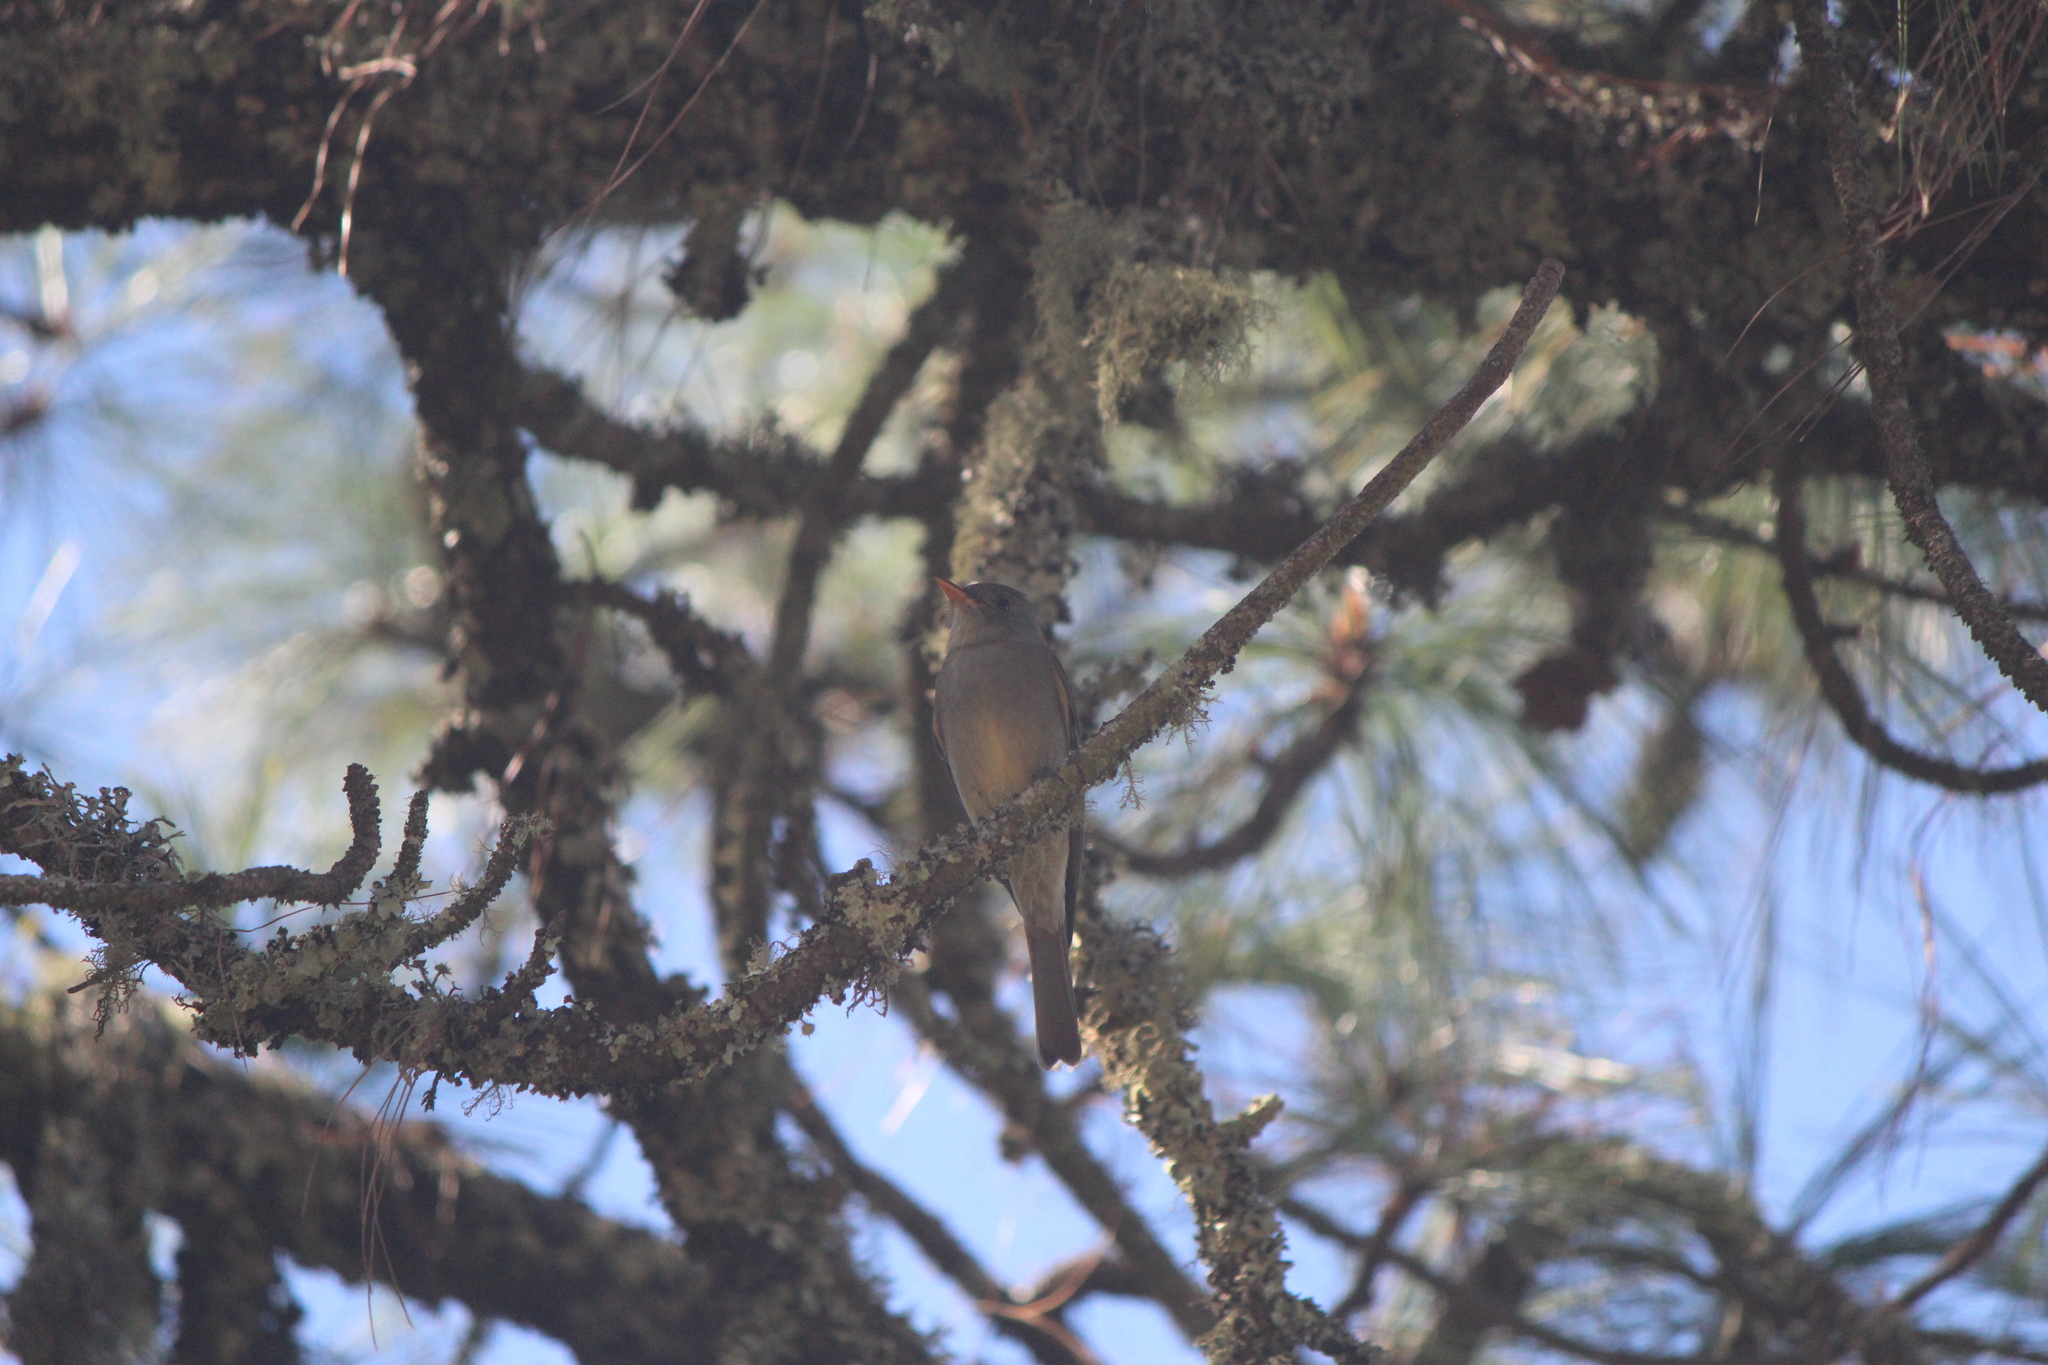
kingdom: Animalia
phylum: Chordata
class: Aves
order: Passeriformes
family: Tyrannidae
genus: Contopus
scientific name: Contopus pertinax
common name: Greater pewee
